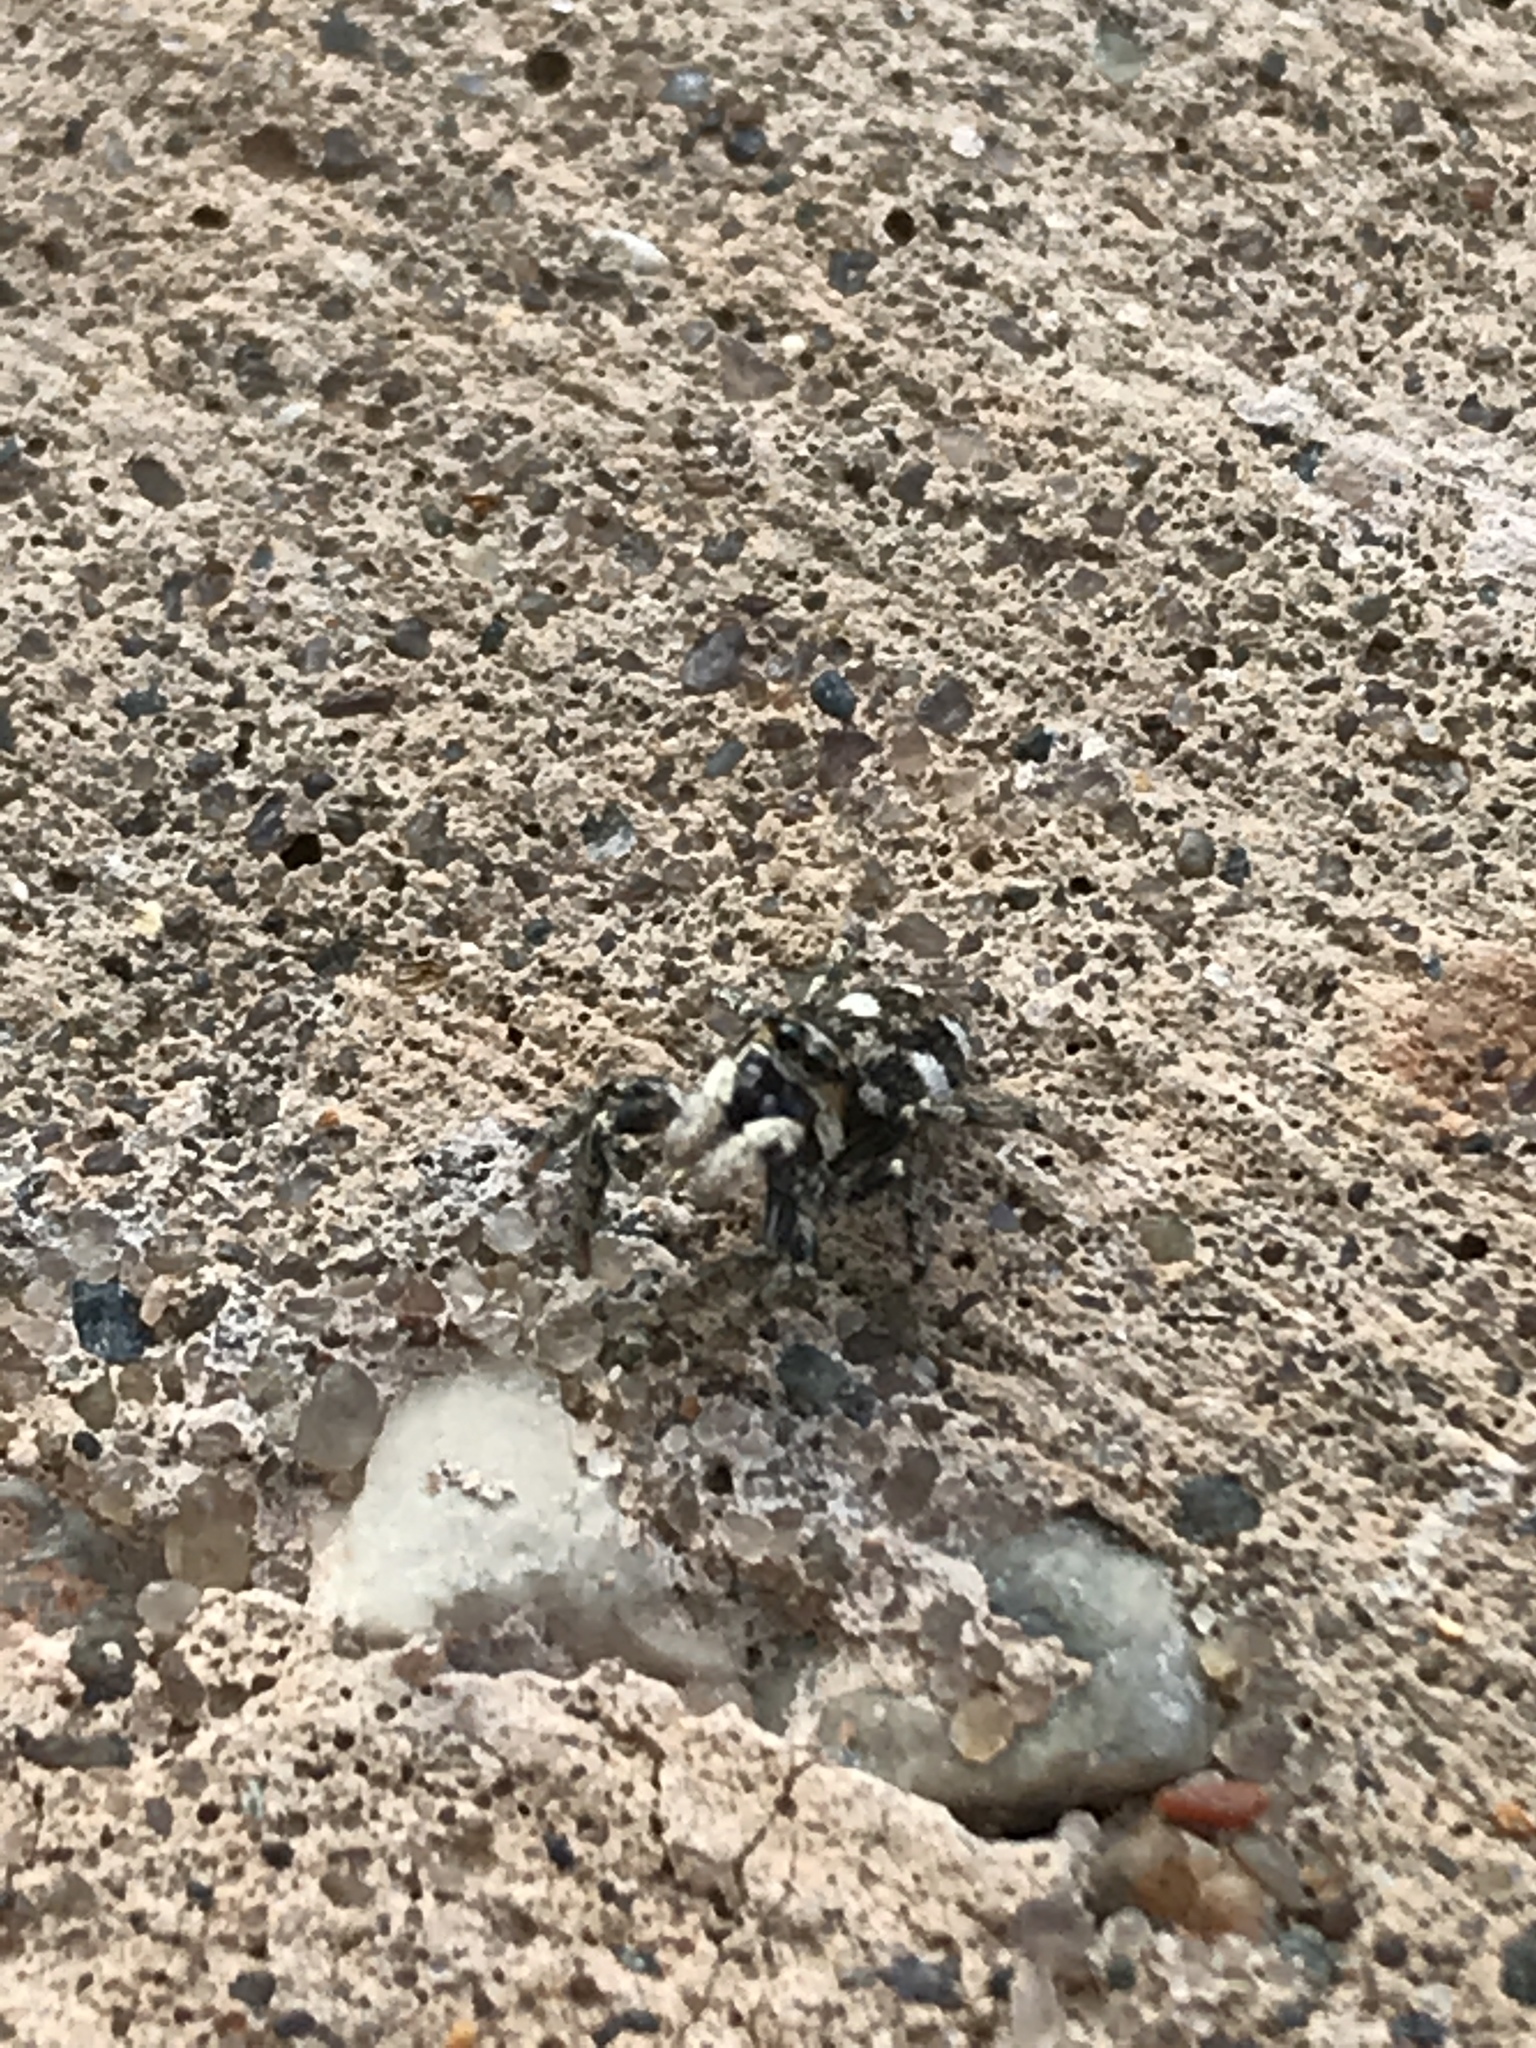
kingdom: Animalia
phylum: Arthropoda
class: Arachnida
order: Araneae
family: Salticidae
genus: Salticus
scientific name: Salticus scenicus
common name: Zebra jumper
